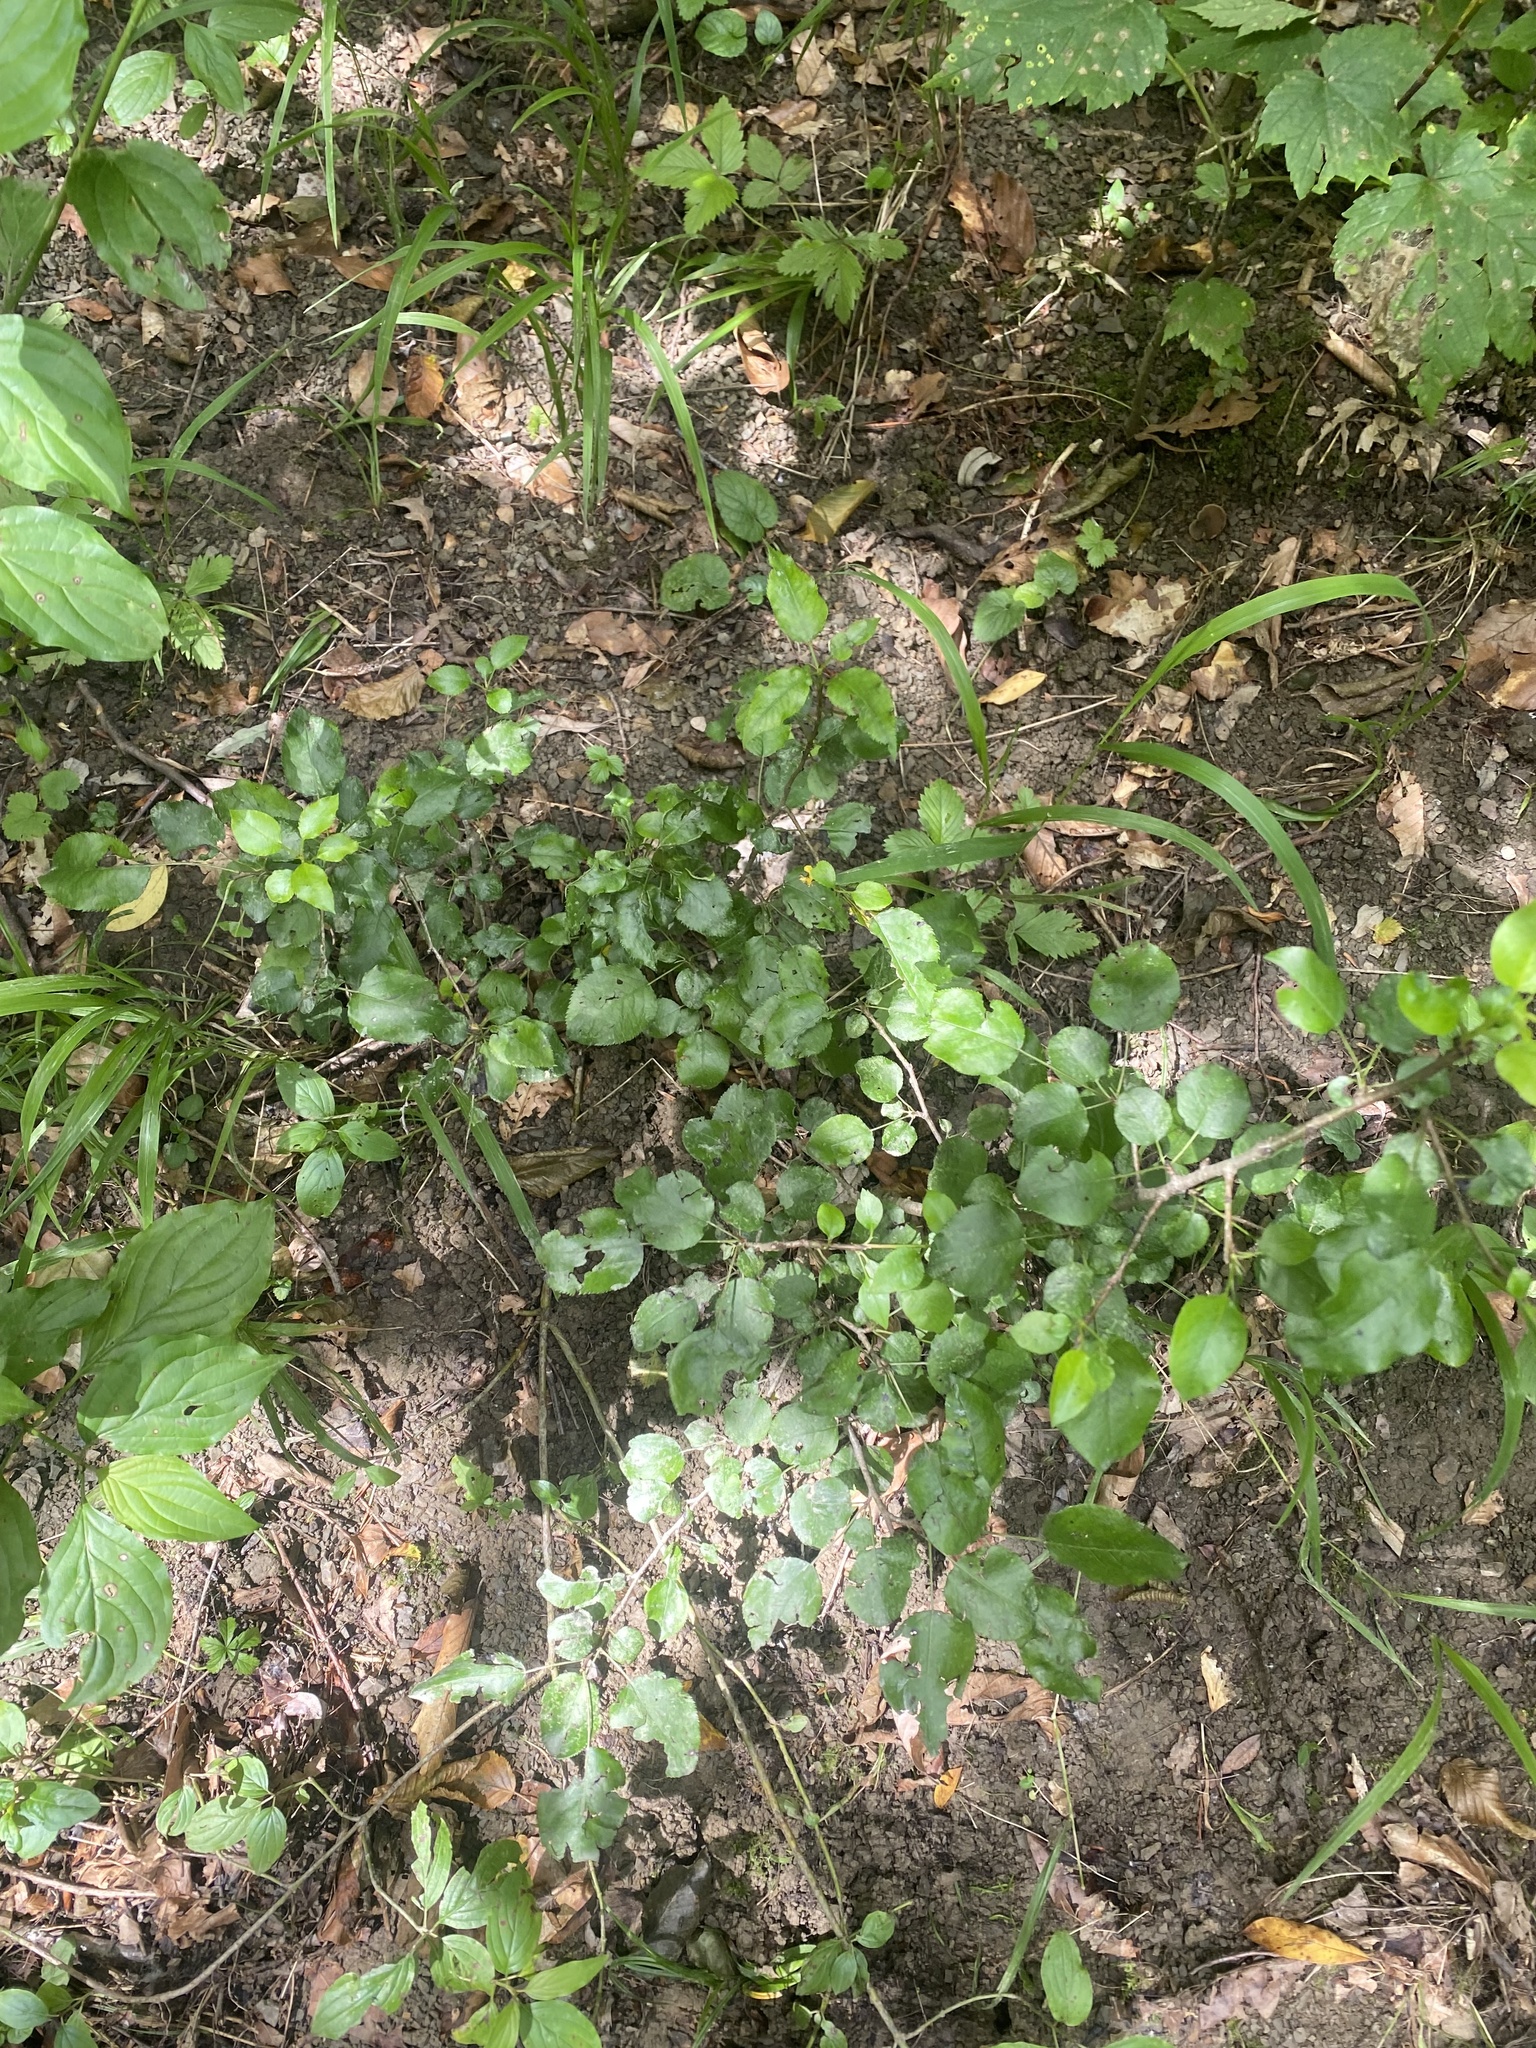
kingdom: Plantae
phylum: Tracheophyta
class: Magnoliopsida
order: Rosales
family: Rosaceae
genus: Pyrus
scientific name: Pyrus communis
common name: Pear
